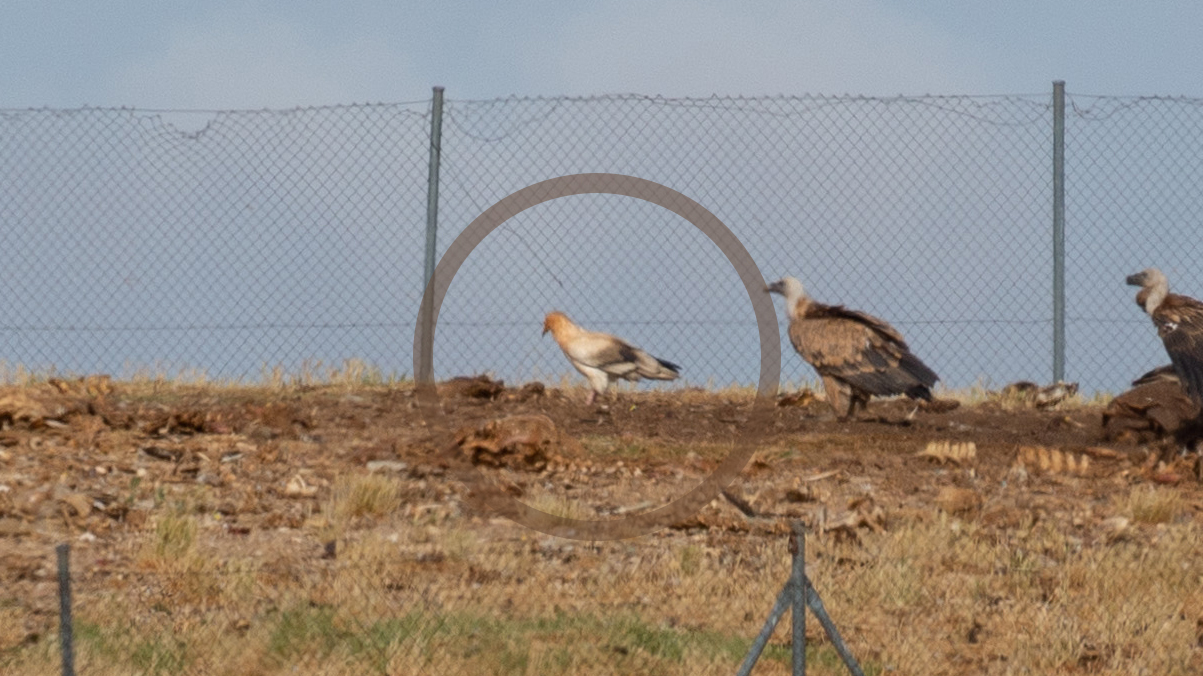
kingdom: Animalia
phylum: Chordata
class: Aves
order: Accipitriformes
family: Accipitridae
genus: Neophron
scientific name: Neophron percnopterus
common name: Egyptian vulture
